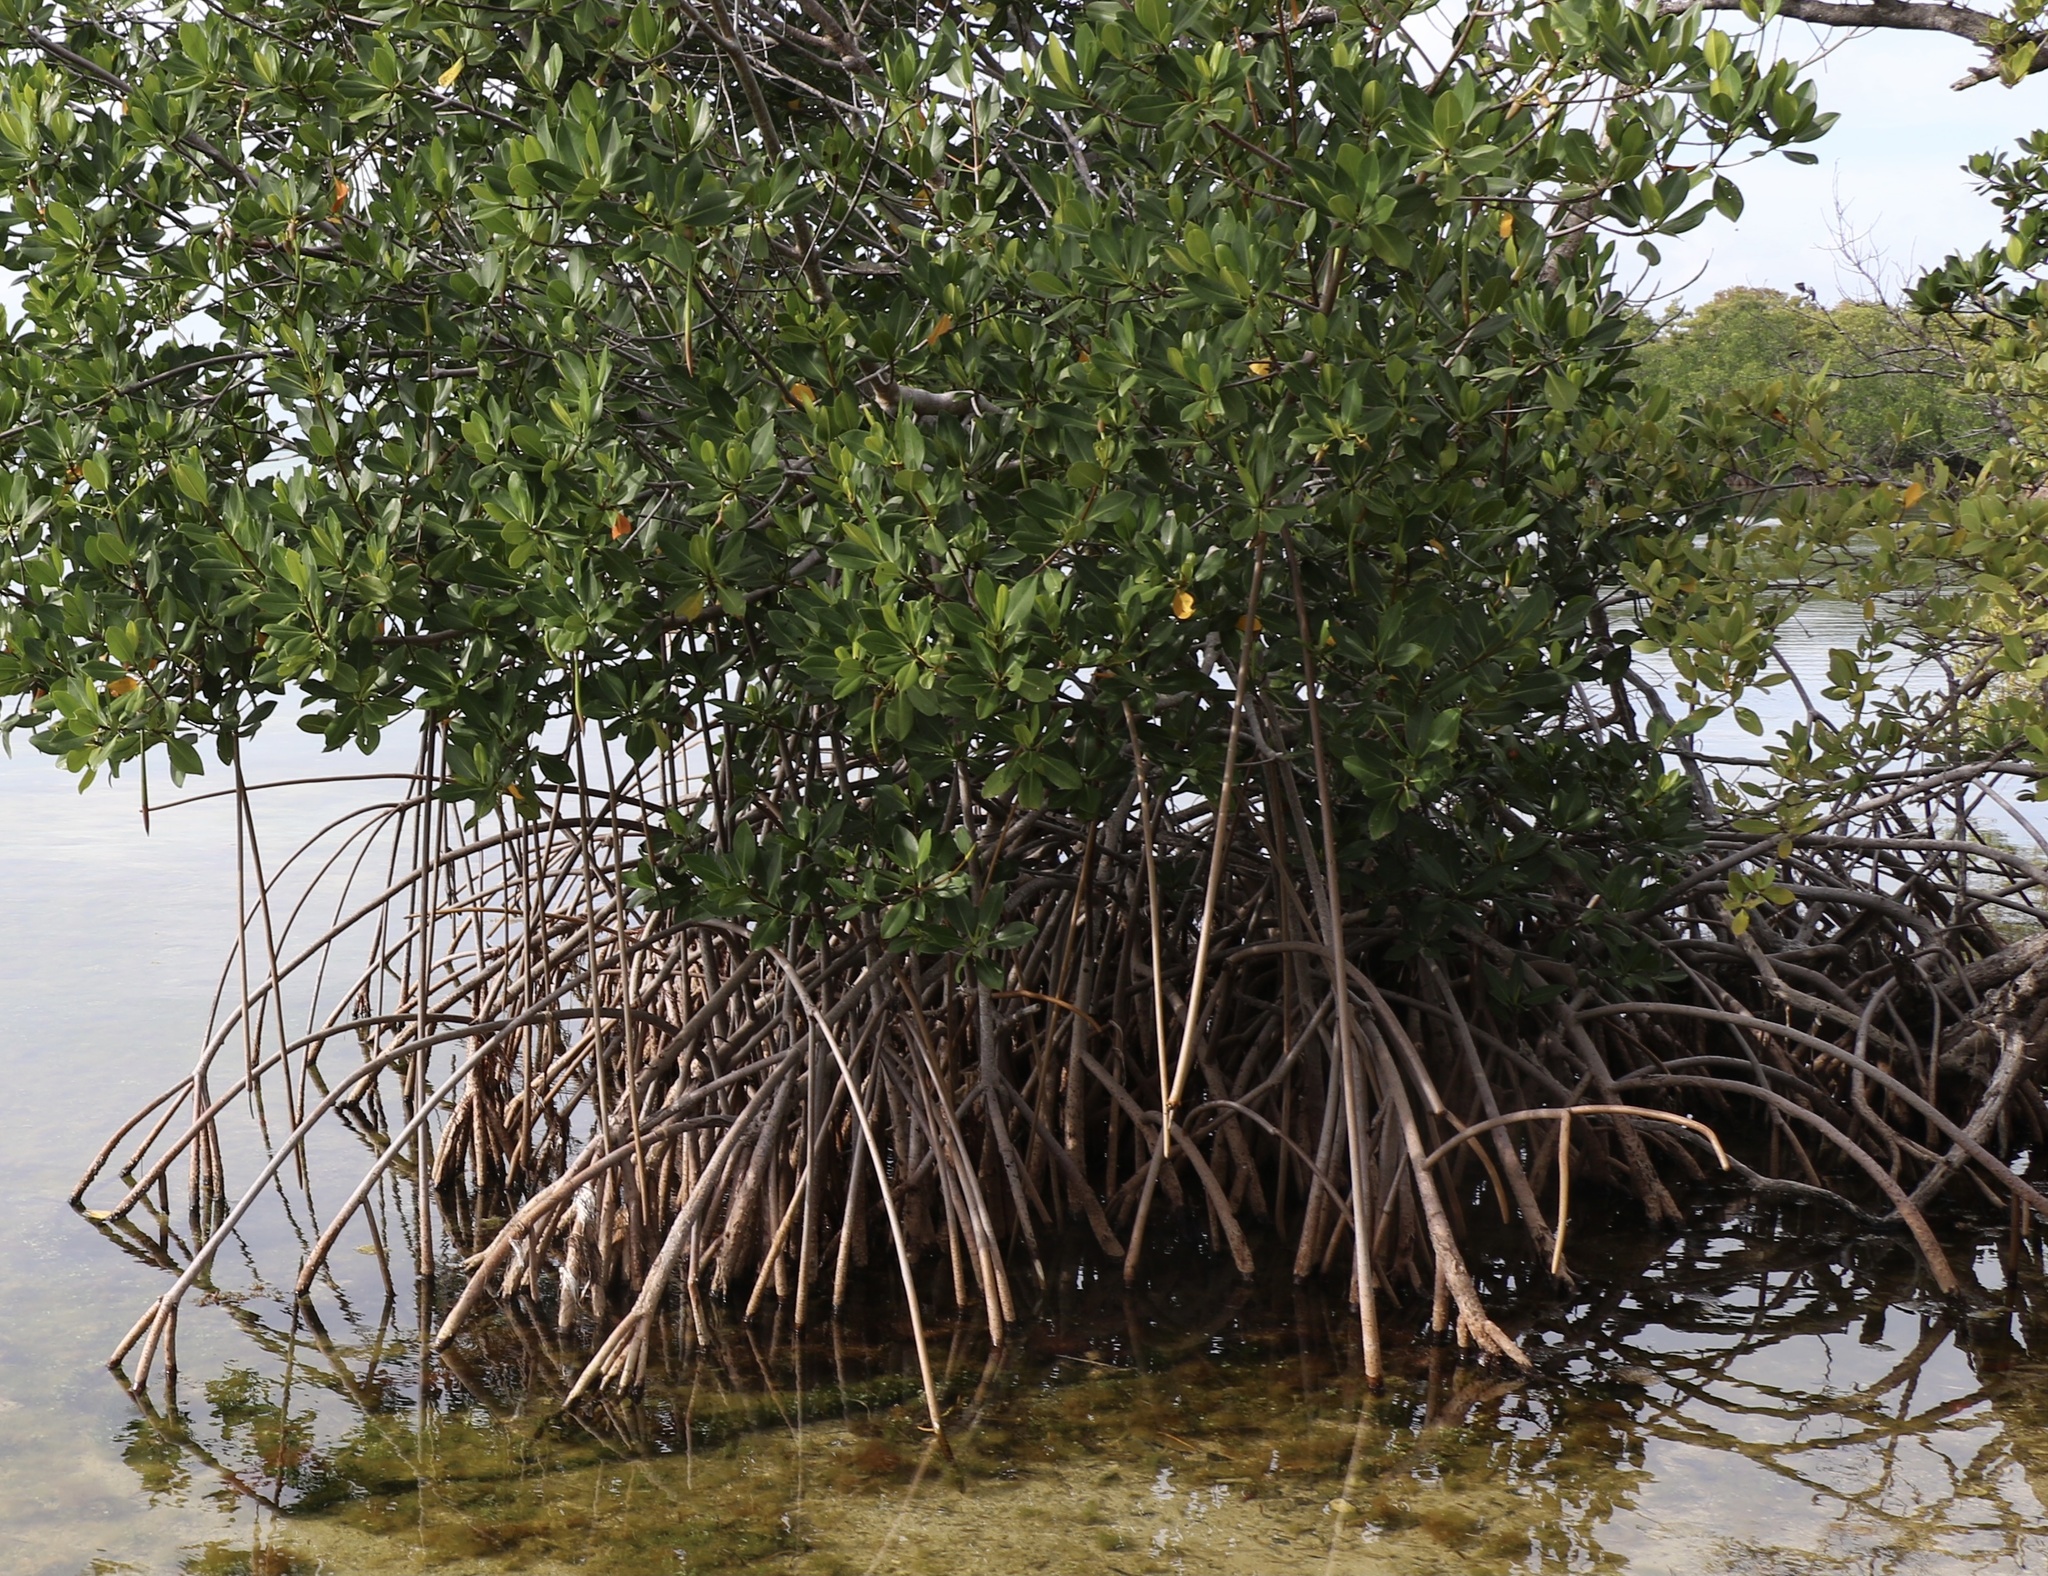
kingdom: Plantae
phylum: Tracheophyta
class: Magnoliopsida
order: Malpighiales
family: Rhizophoraceae
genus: Rhizophora
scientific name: Rhizophora mangle
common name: Red mangrove
